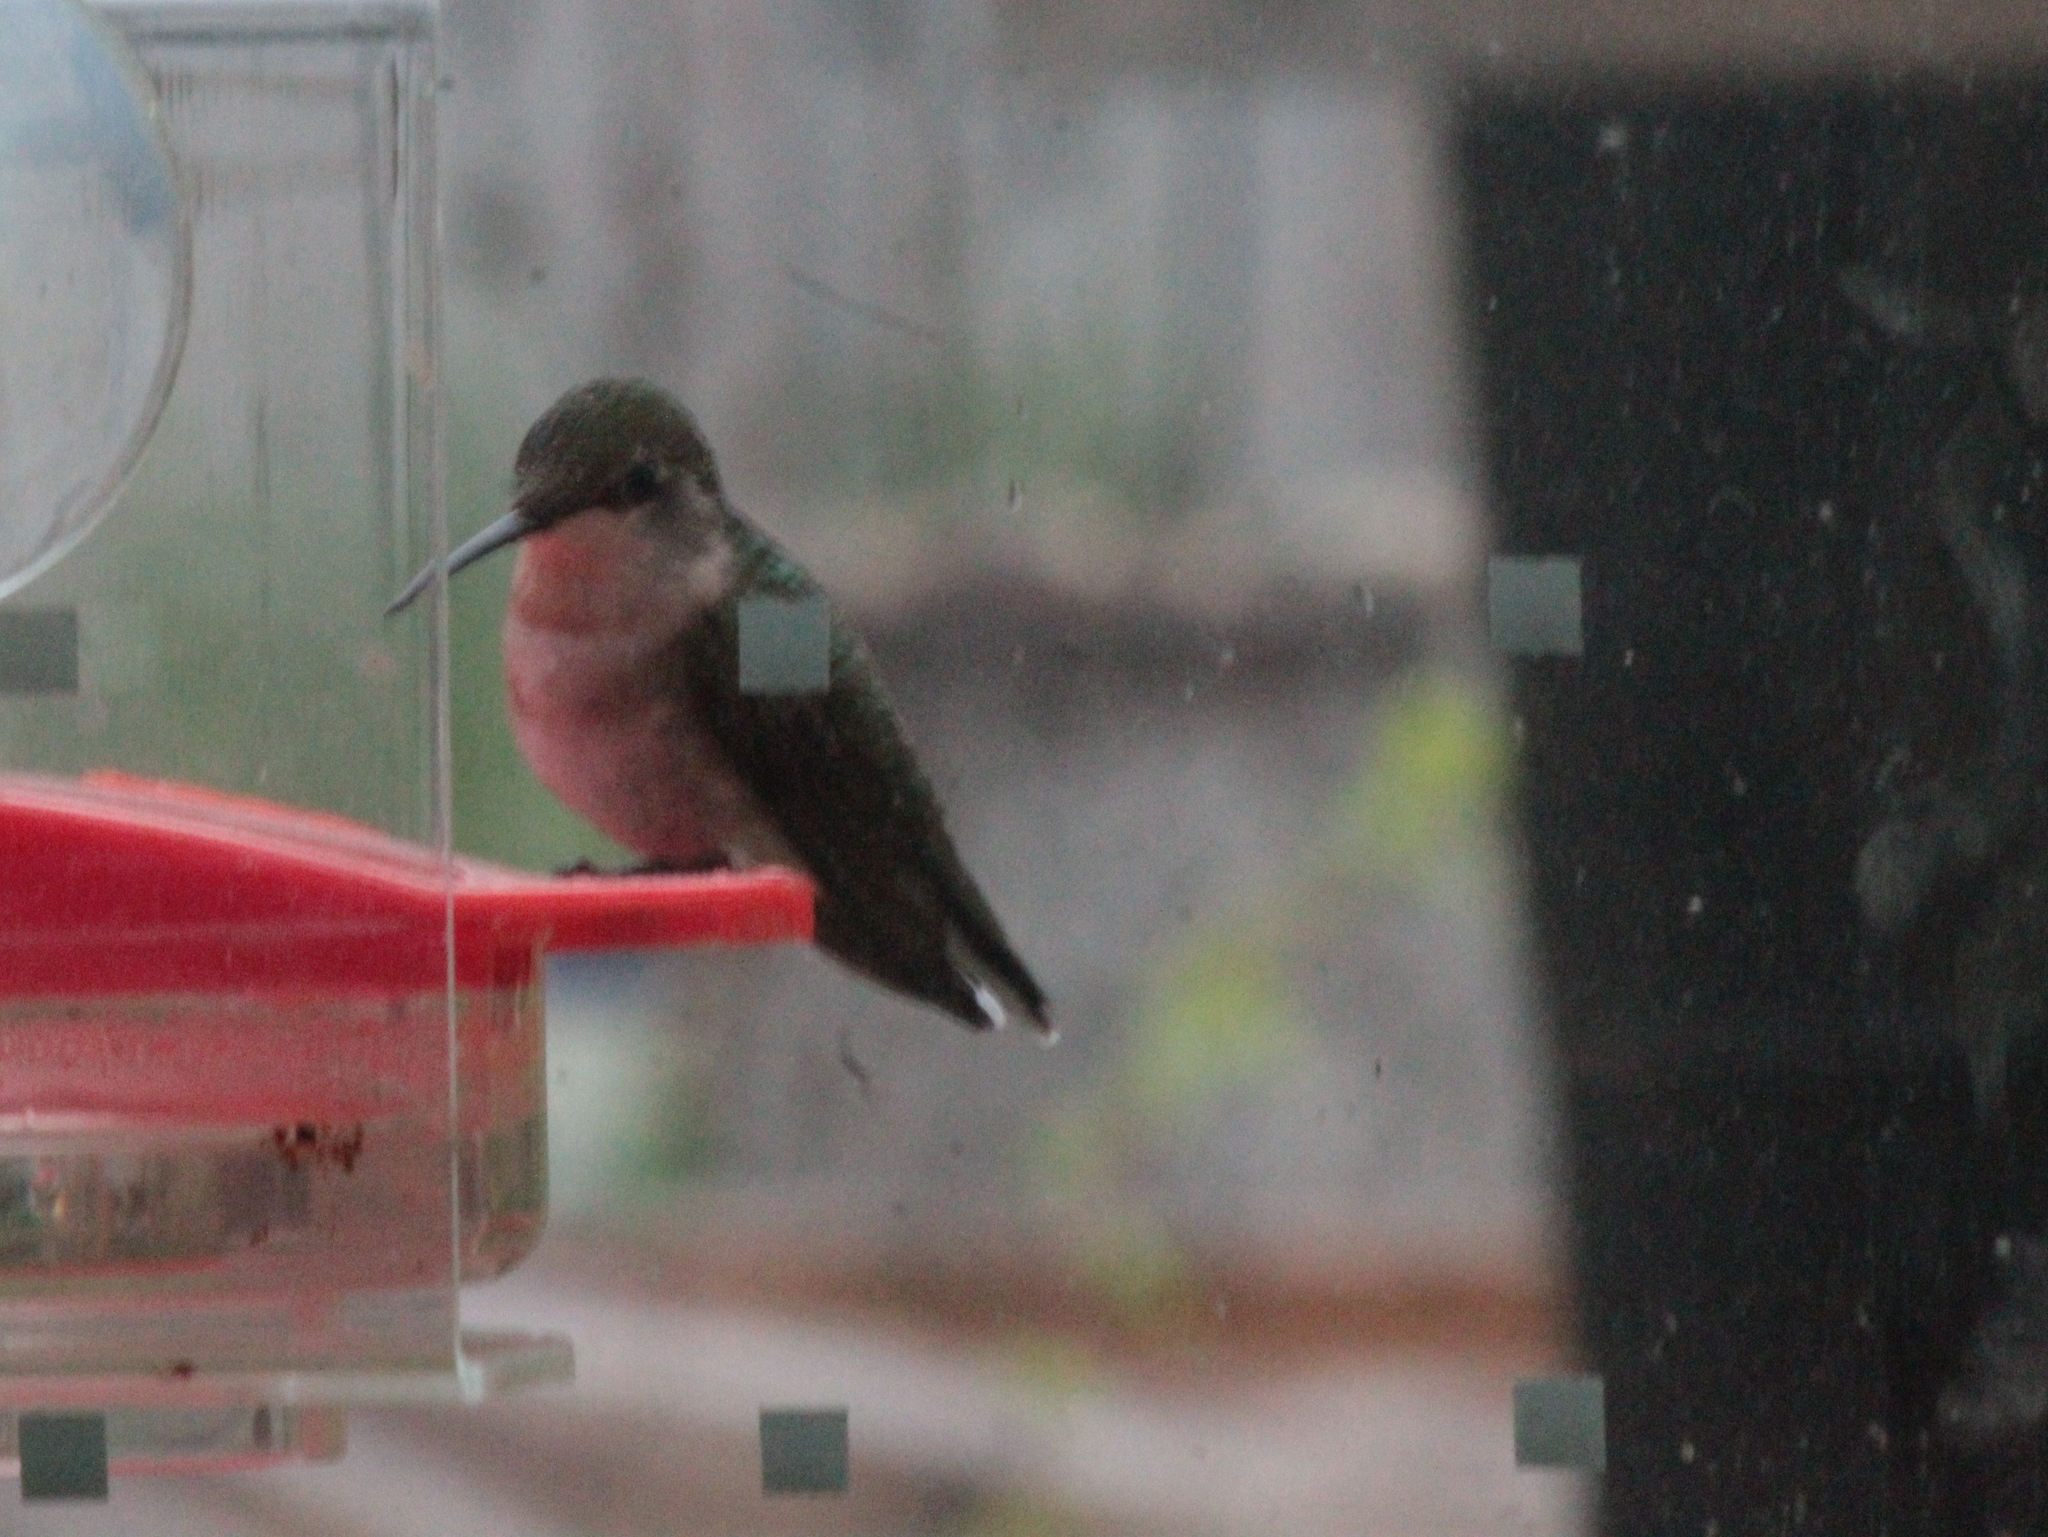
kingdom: Animalia
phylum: Chordata
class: Aves
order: Apodiformes
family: Trochilidae
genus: Archilochus
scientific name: Archilochus colubris
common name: Ruby-throated hummingbird
